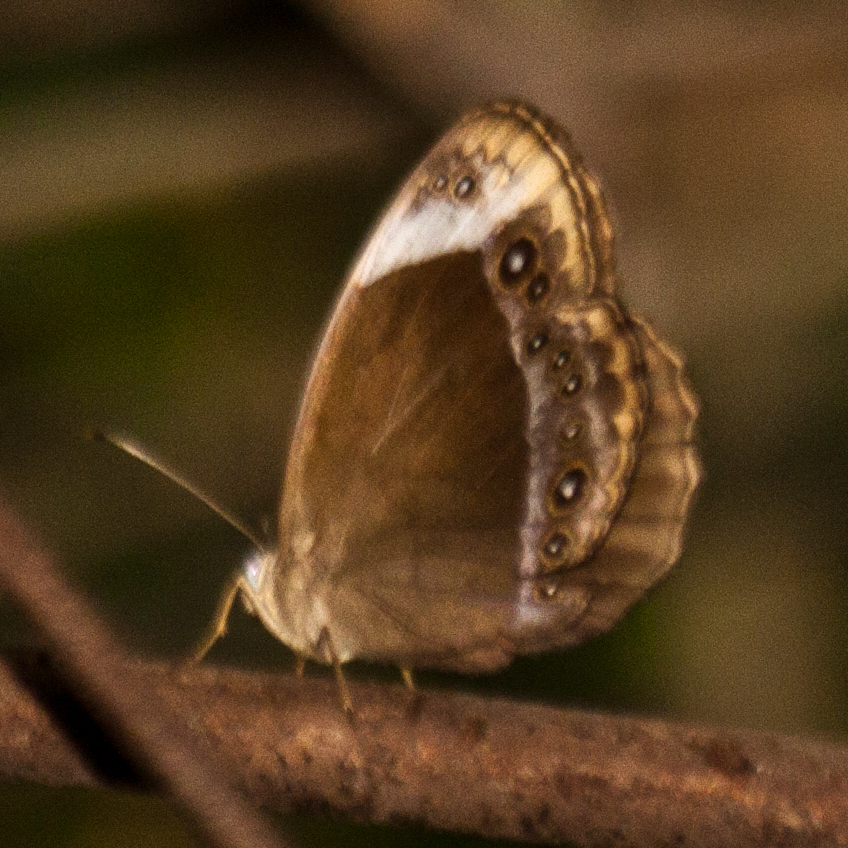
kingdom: Animalia
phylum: Arthropoda
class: Insecta
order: Lepidoptera
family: Nymphalidae
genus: Mycalesis
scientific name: Mycalesis anaxioides
